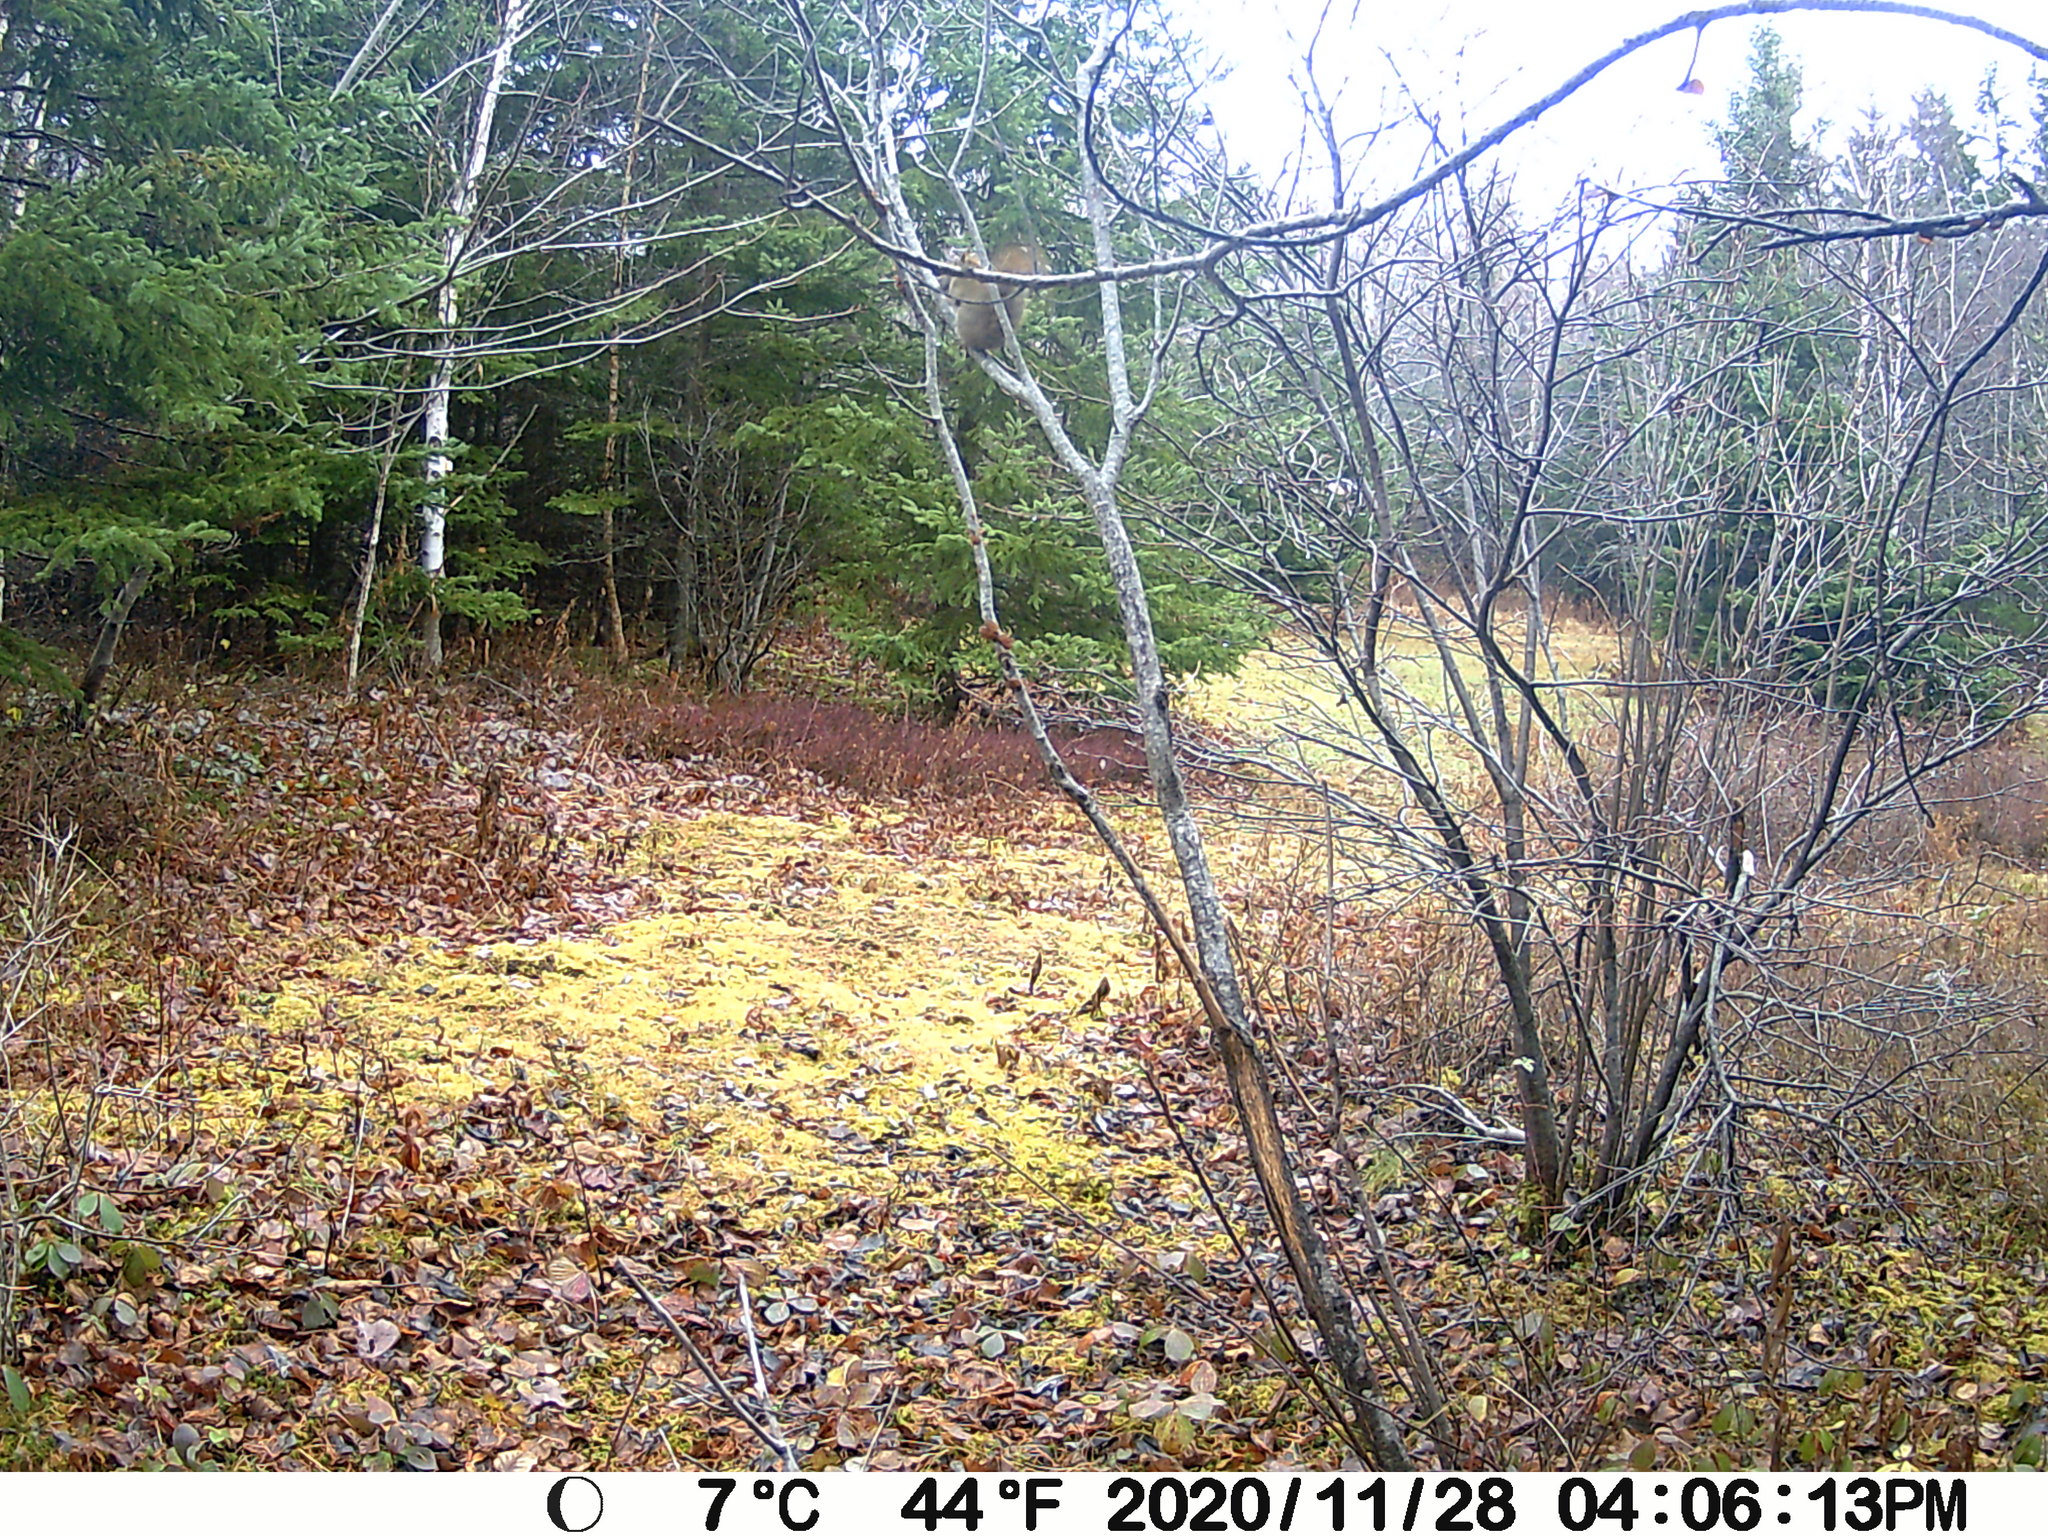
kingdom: Animalia
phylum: Chordata
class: Mammalia
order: Rodentia
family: Sciuridae
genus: Tamiasciurus
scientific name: Tamiasciurus hudsonicus
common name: Red squirrel
